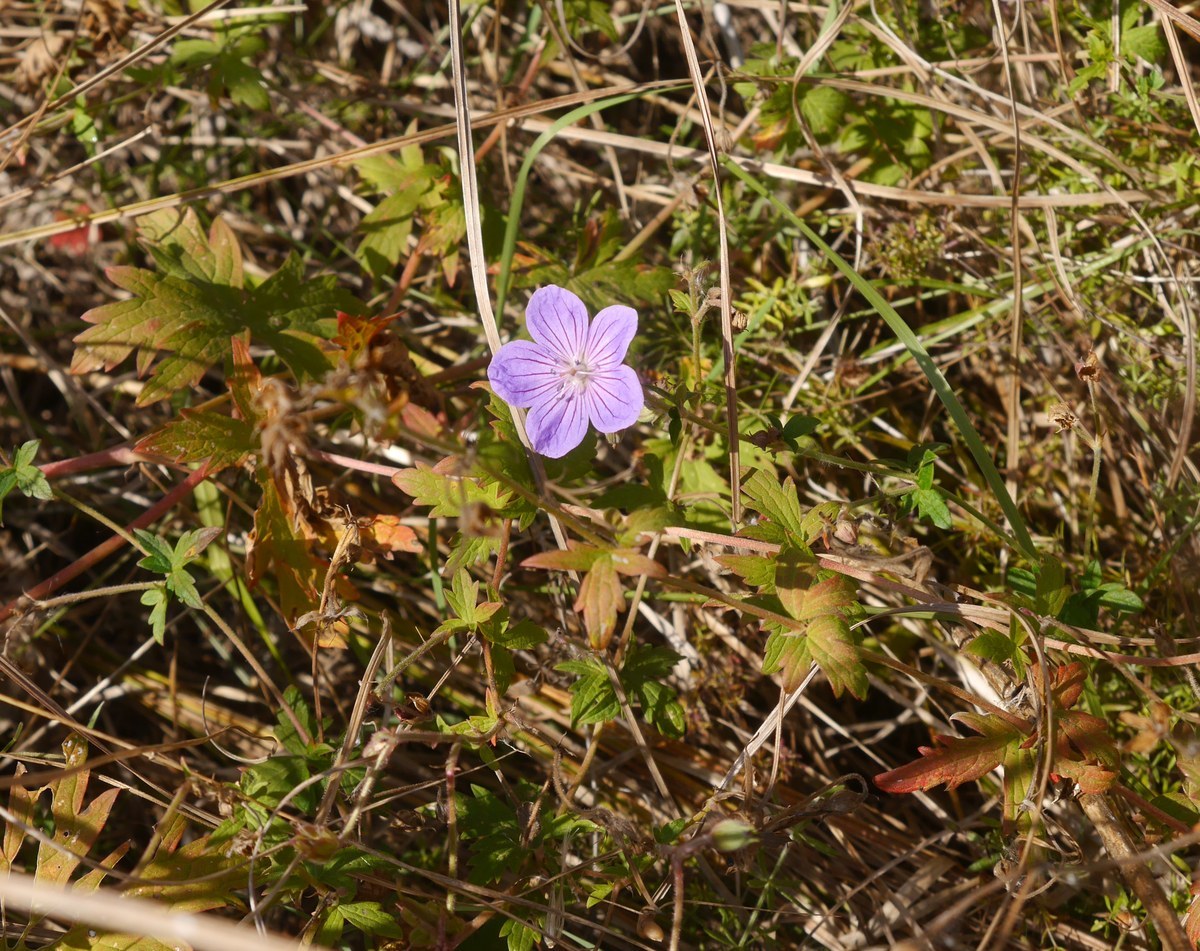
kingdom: Plantae
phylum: Tracheophyta
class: Magnoliopsida
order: Geraniales
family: Geraniaceae
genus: Geranium
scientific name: Geranium collinum
